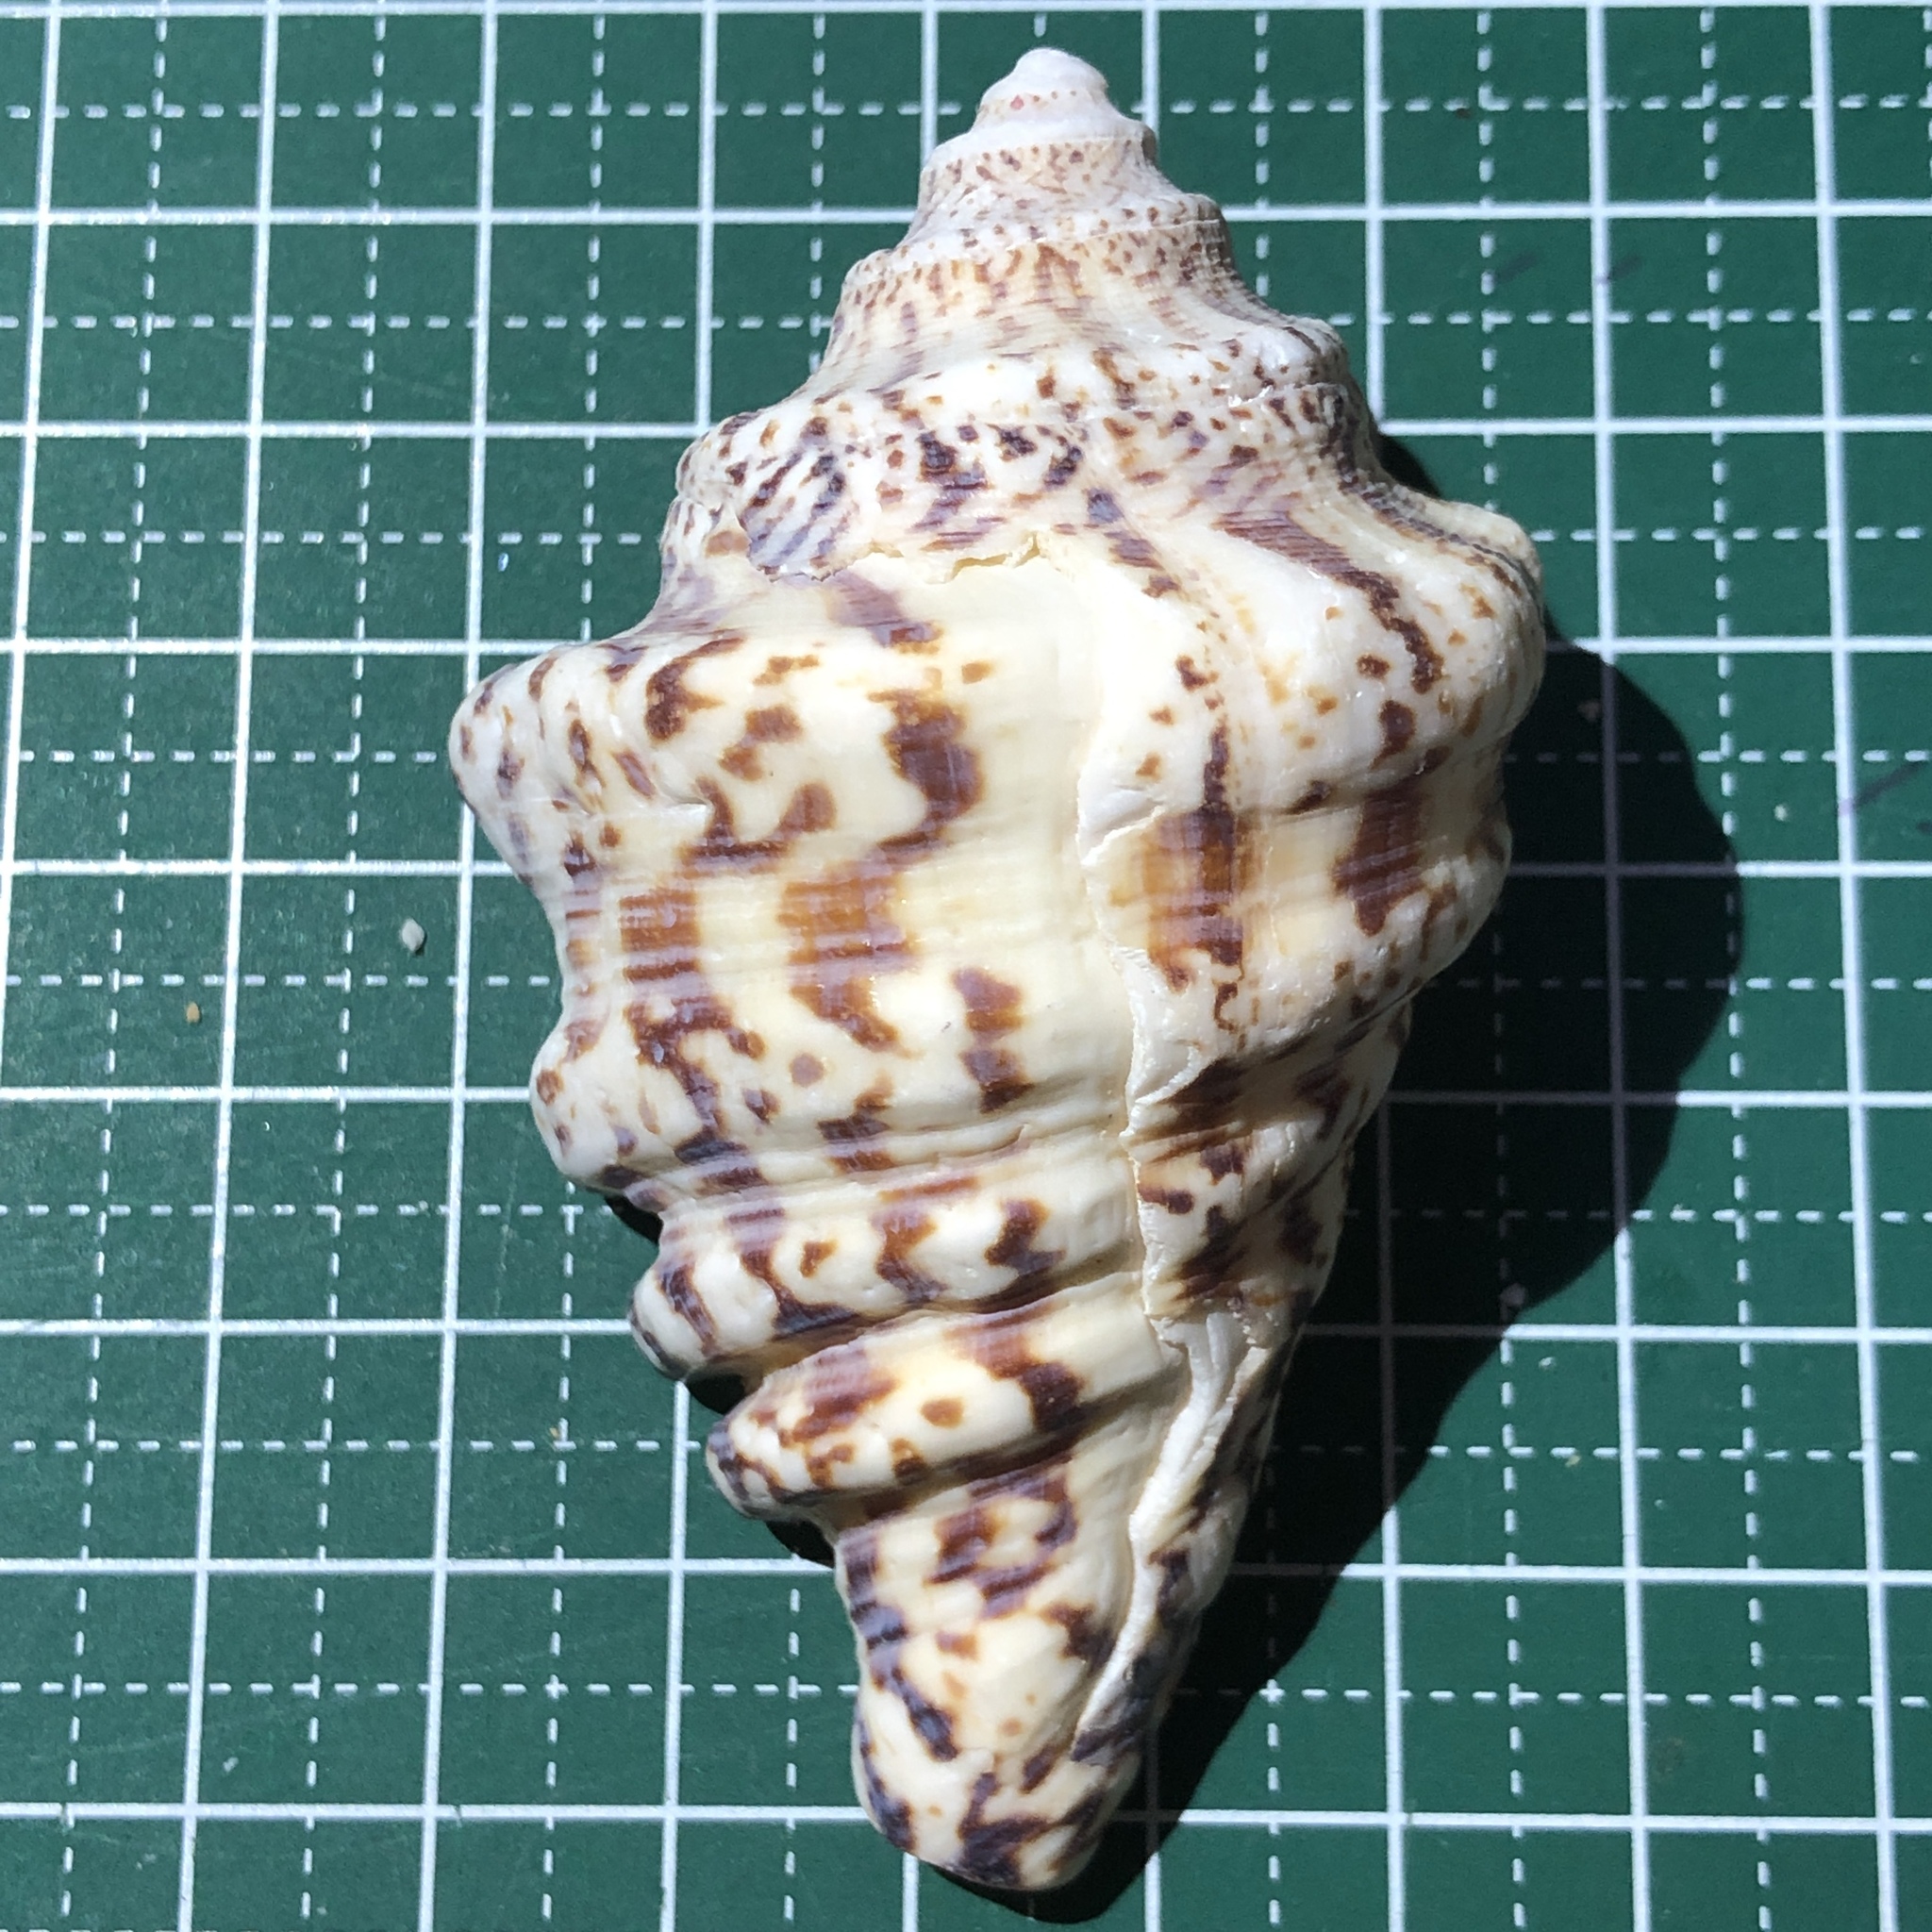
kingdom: Animalia
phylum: Mollusca
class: Gastropoda
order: Littorinimorpha
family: Strombidae
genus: Harpago
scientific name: Harpago chiragra
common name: Chiragra spider conch
